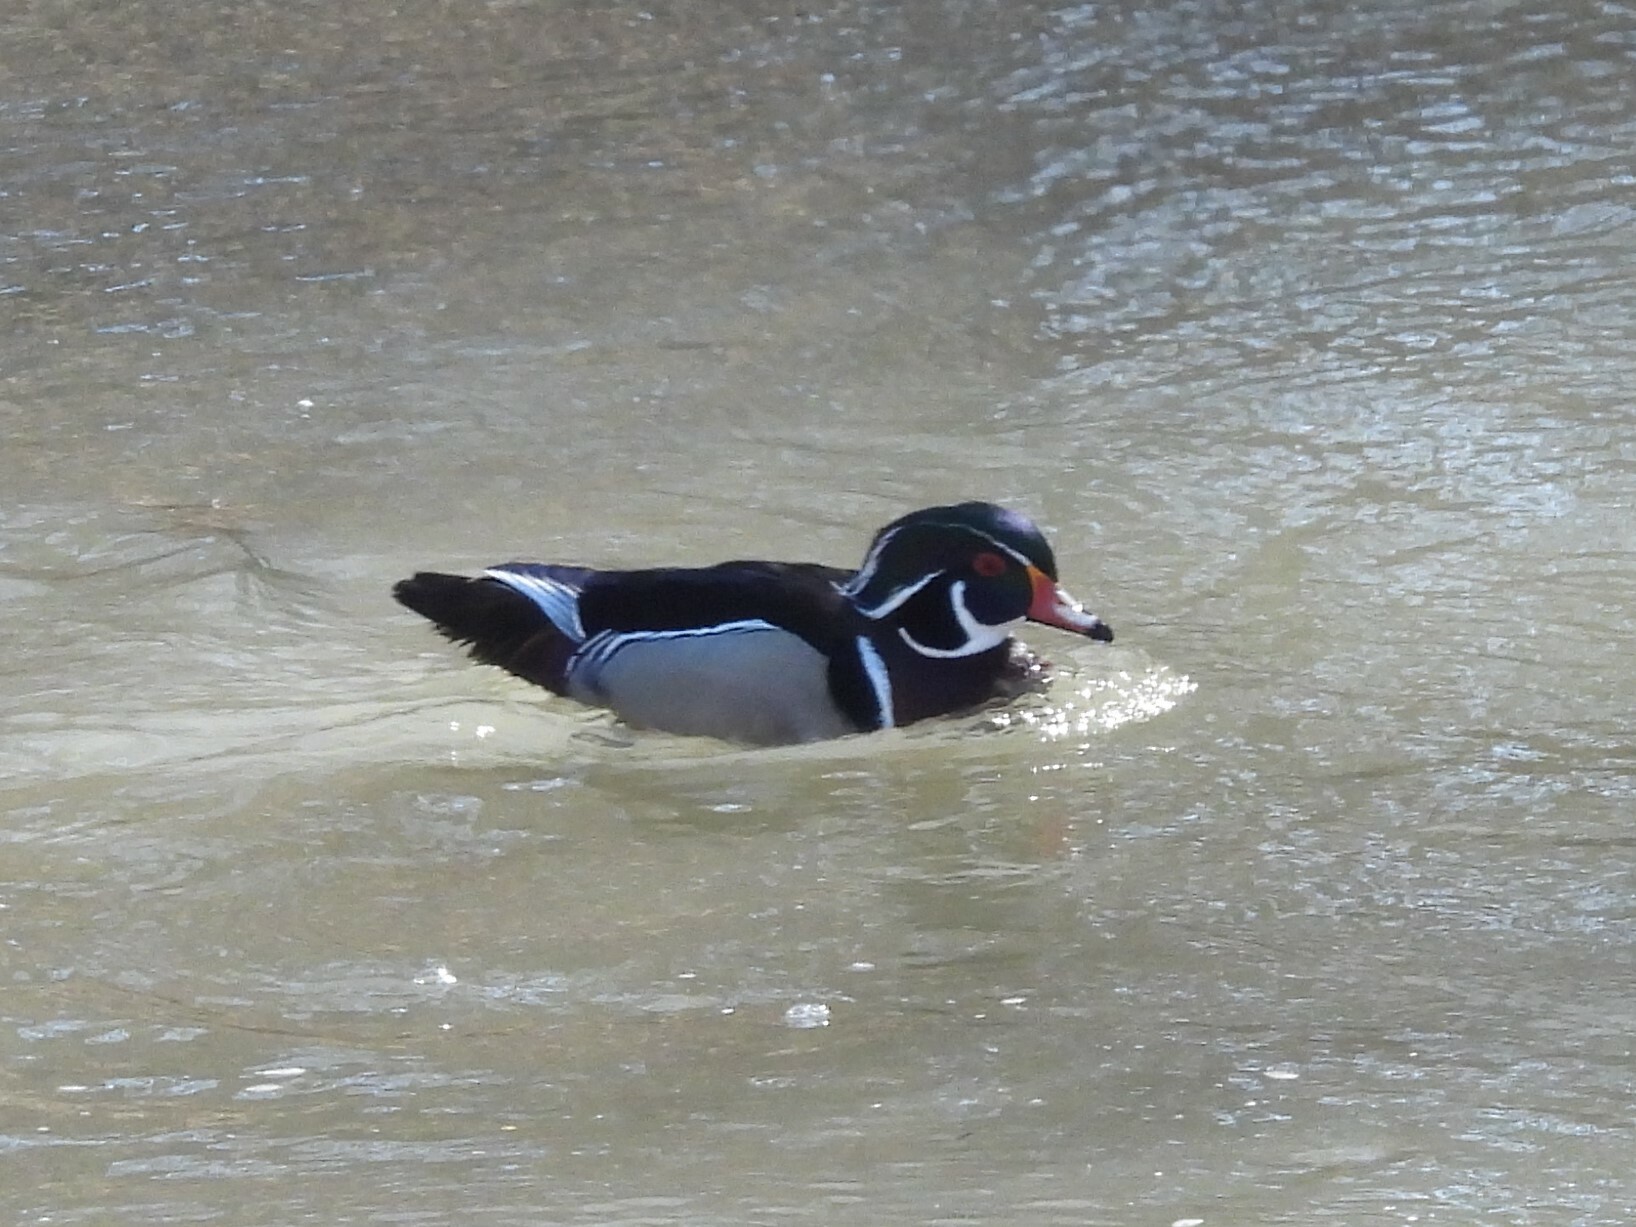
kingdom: Animalia
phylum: Chordata
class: Aves
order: Anseriformes
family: Anatidae
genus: Aix
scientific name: Aix sponsa
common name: Wood duck
